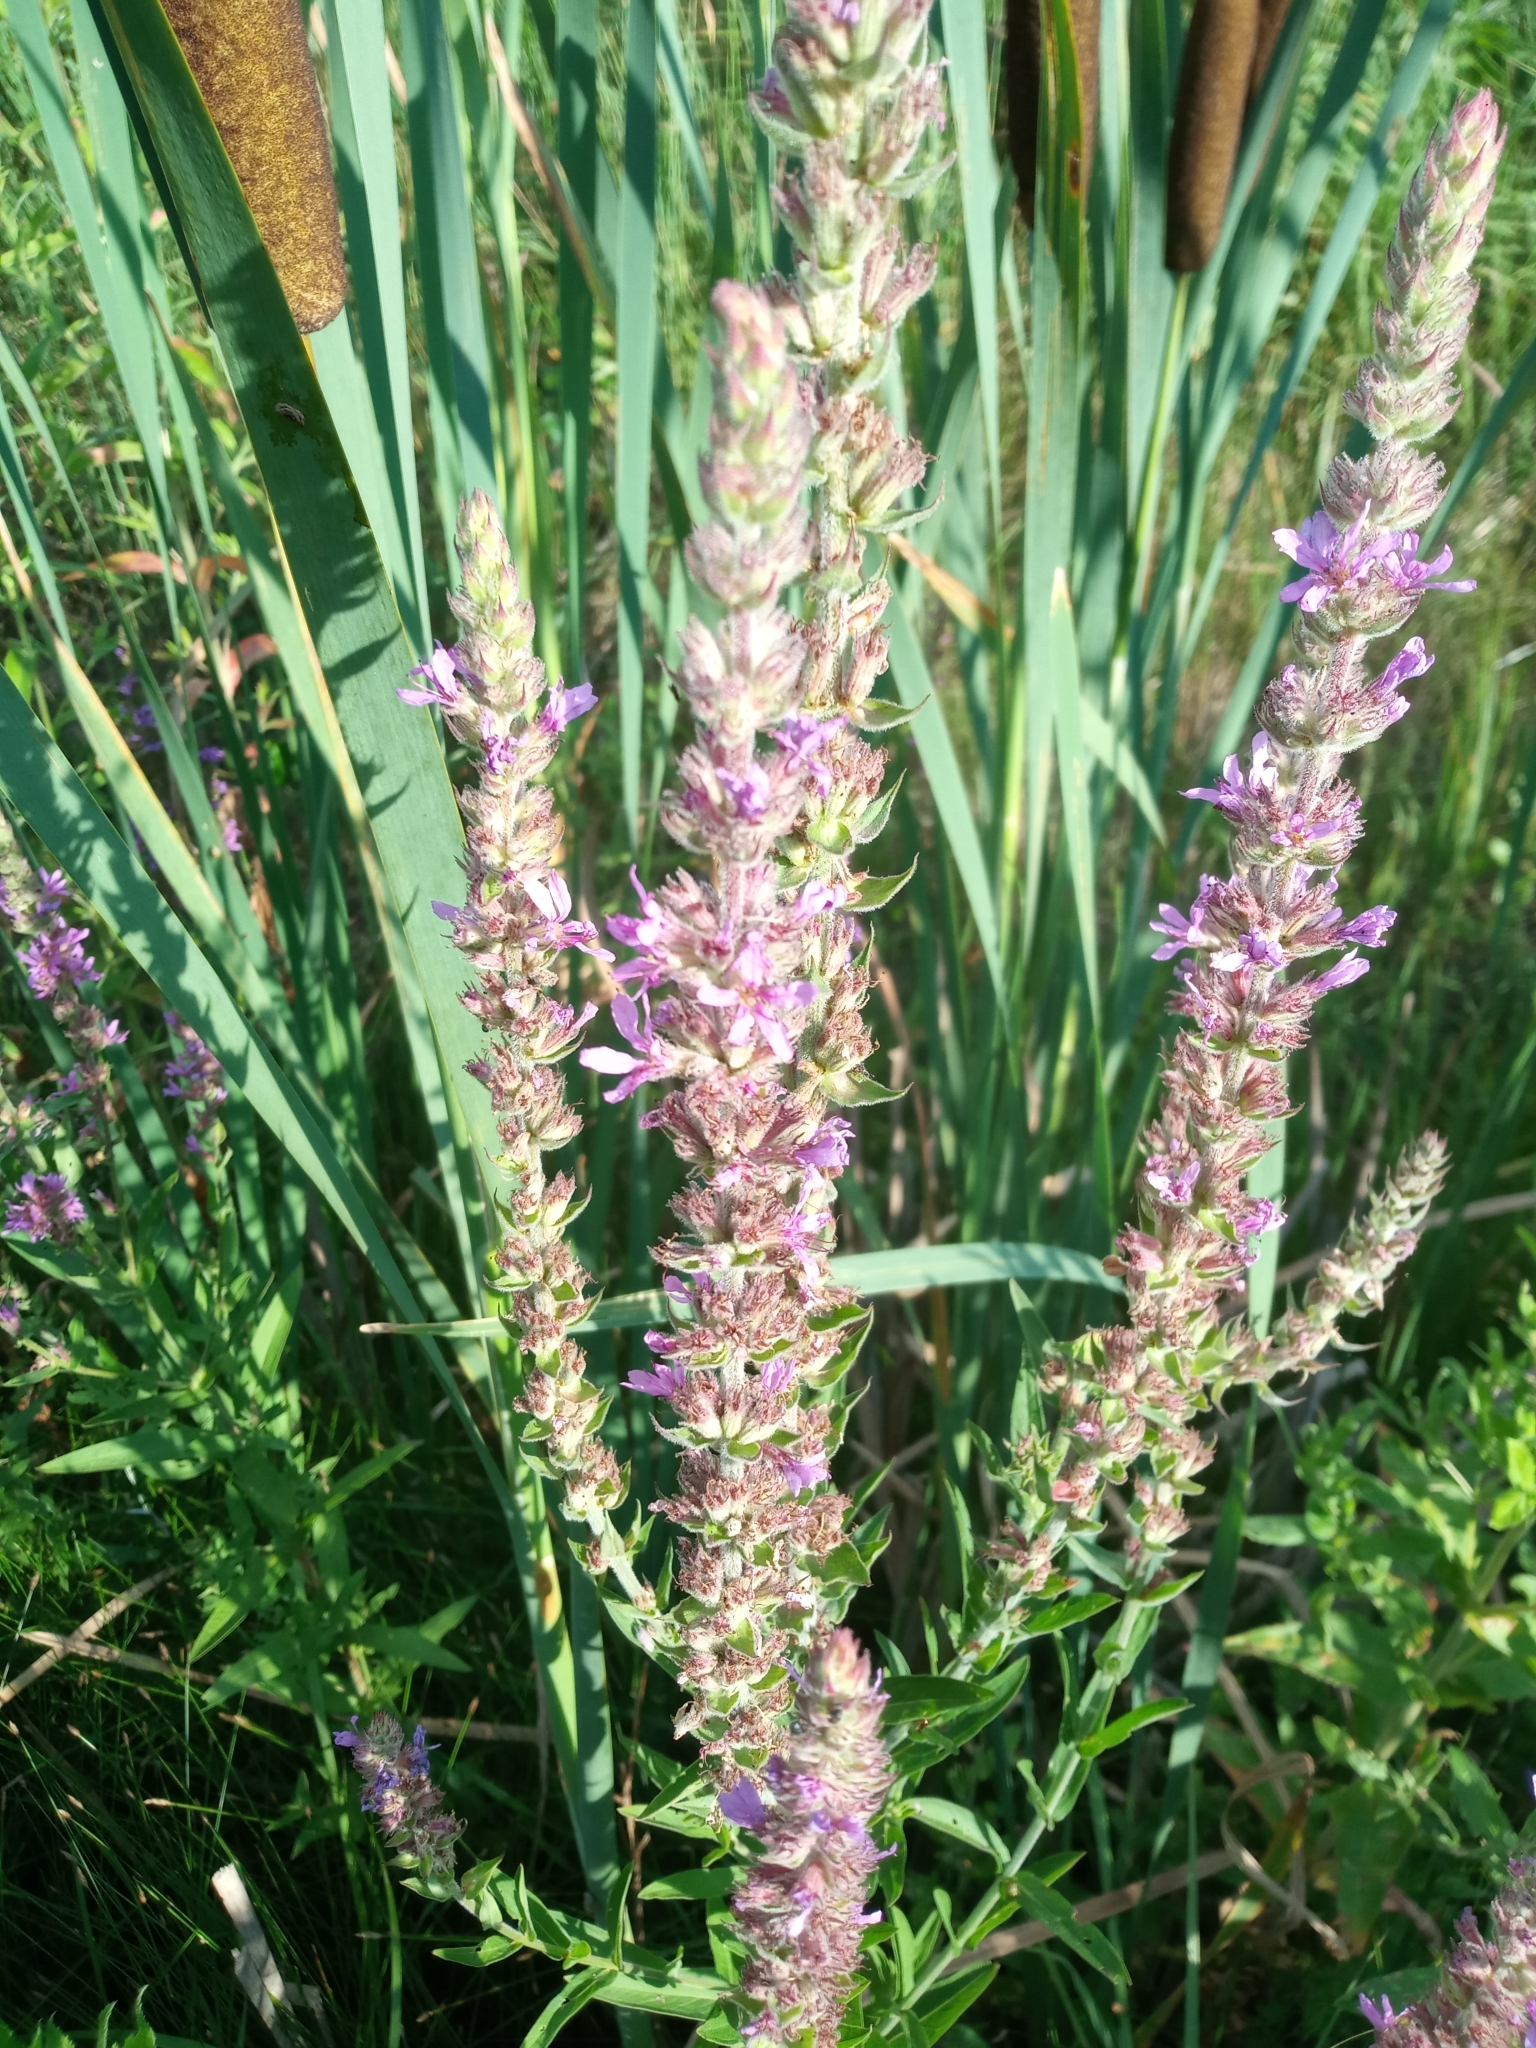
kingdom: Plantae
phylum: Tracheophyta
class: Magnoliopsida
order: Myrtales
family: Lythraceae
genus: Lythrum
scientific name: Lythrum salicaria
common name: Purple loosestrife
